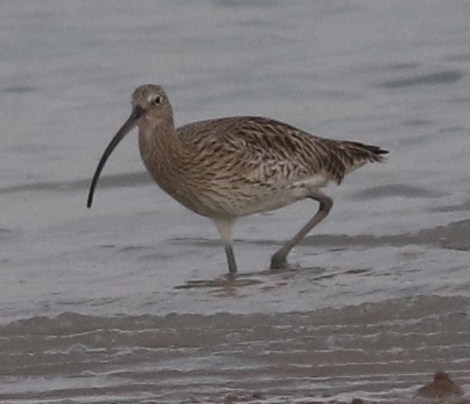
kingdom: Animalia
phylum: Chordata
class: Aves
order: Charadriiformes
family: Scolopacidae
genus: Numenius
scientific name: Numenius arquata
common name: Eurasian curlew
